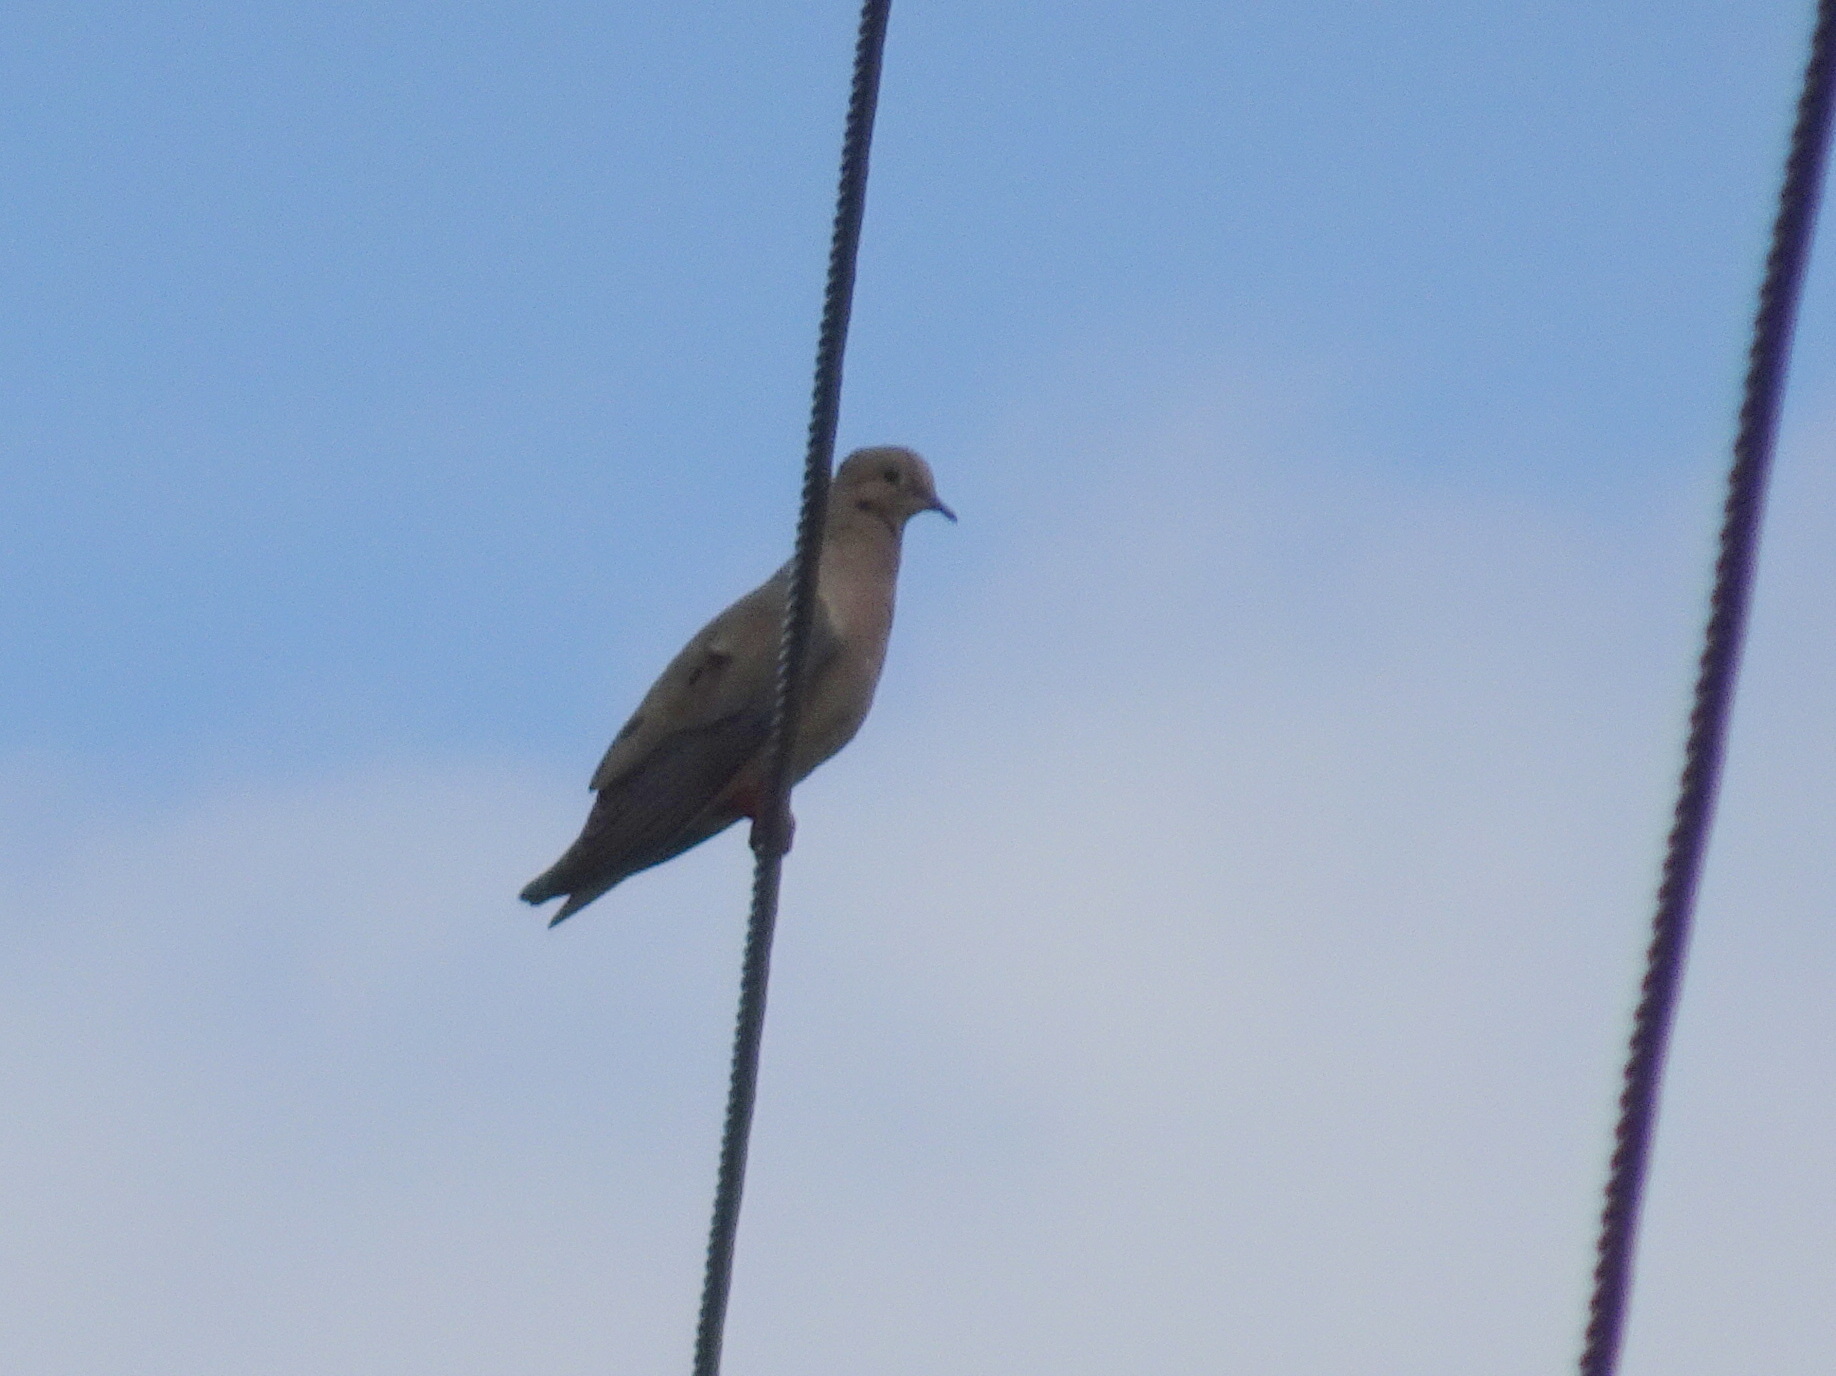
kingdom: Animalia
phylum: Chordata
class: Aves
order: Columbiformes
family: Columbidae
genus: Zenaida
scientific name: Zenaida macroura
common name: Mourning dove
